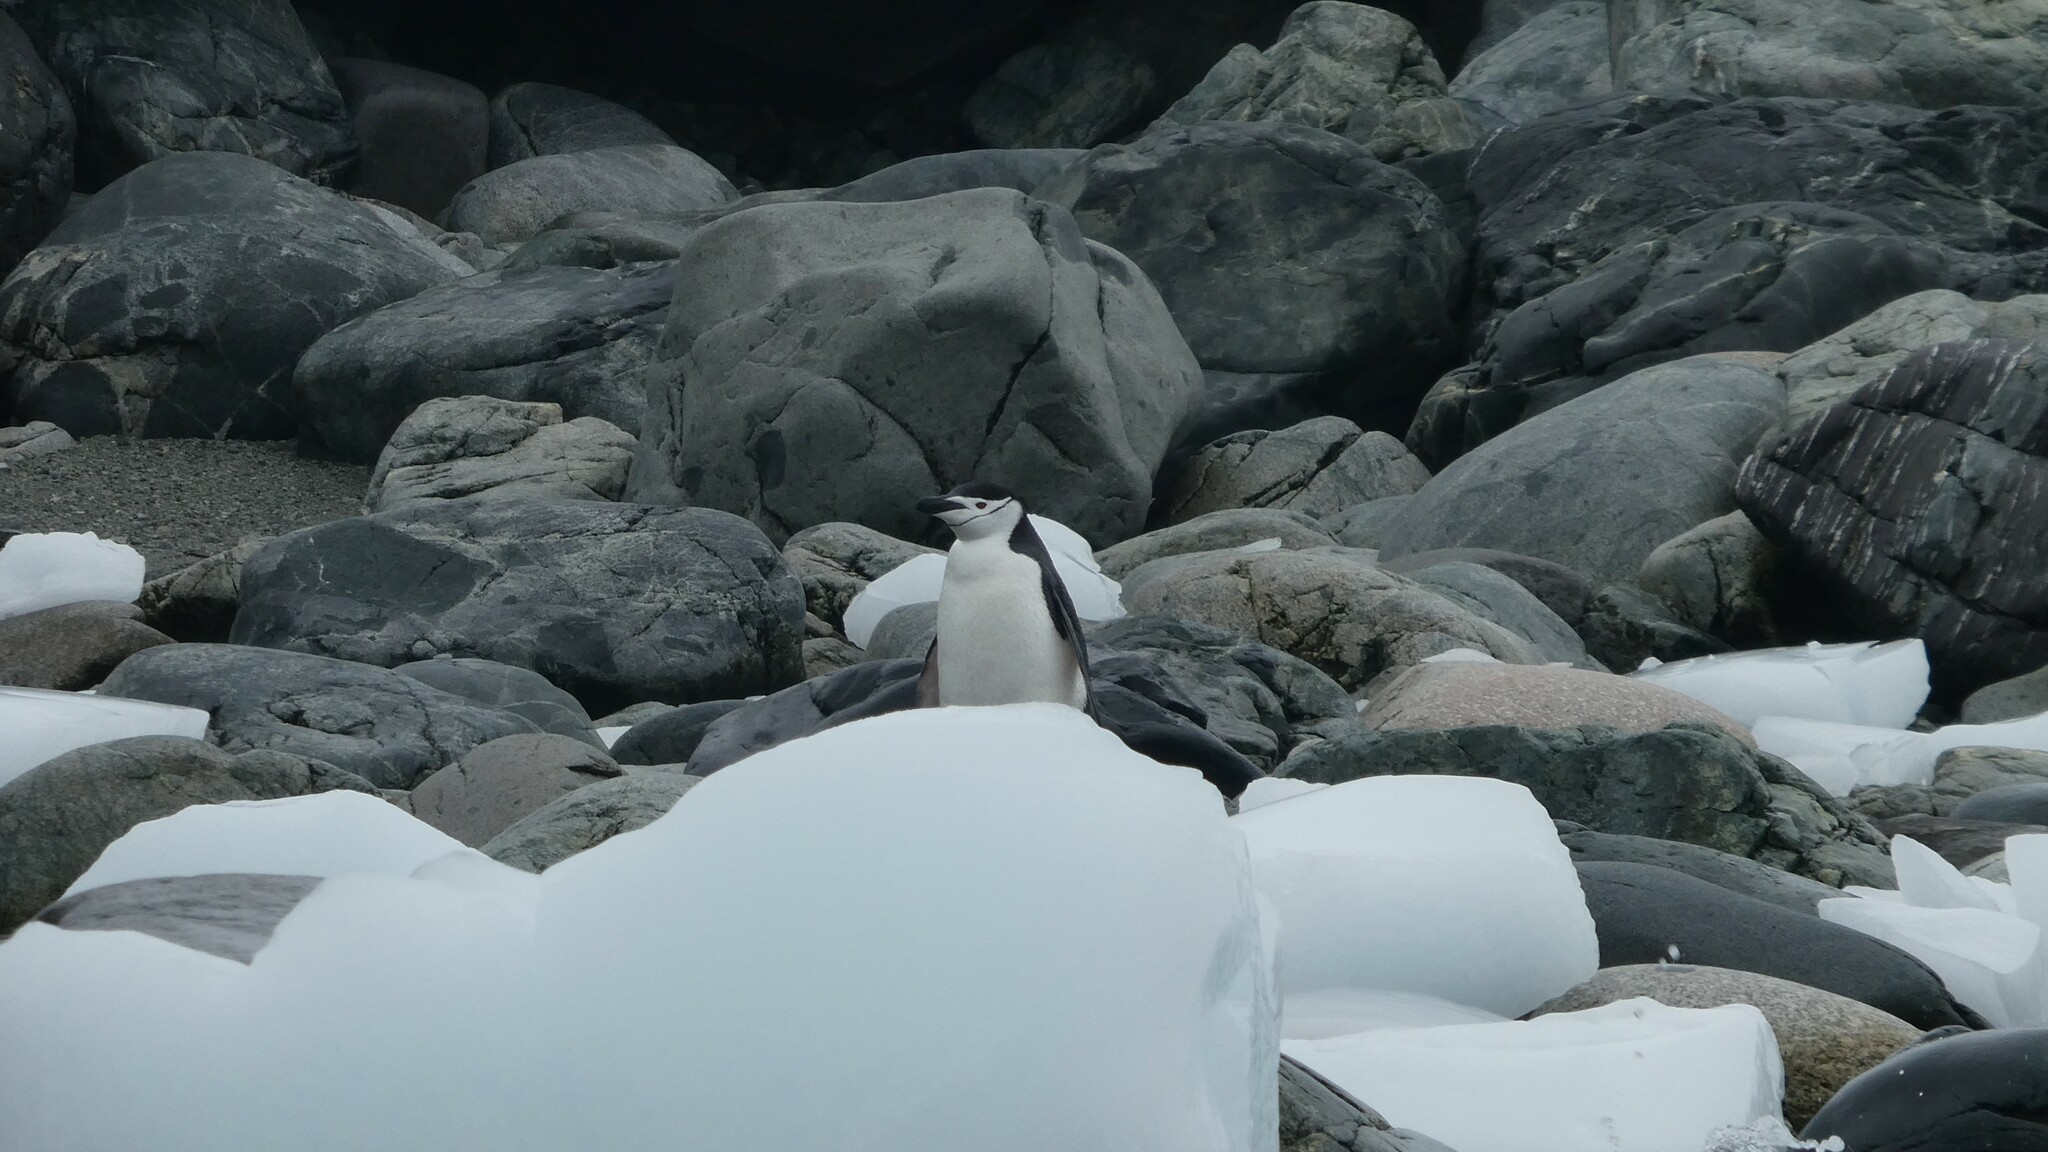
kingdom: Animalia
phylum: Chordata
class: Aves
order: Sphenisciformes
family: Spheniscidae
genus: Pygoscelis
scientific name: Pygoscelis antarcticus
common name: Chinstrap penguin
